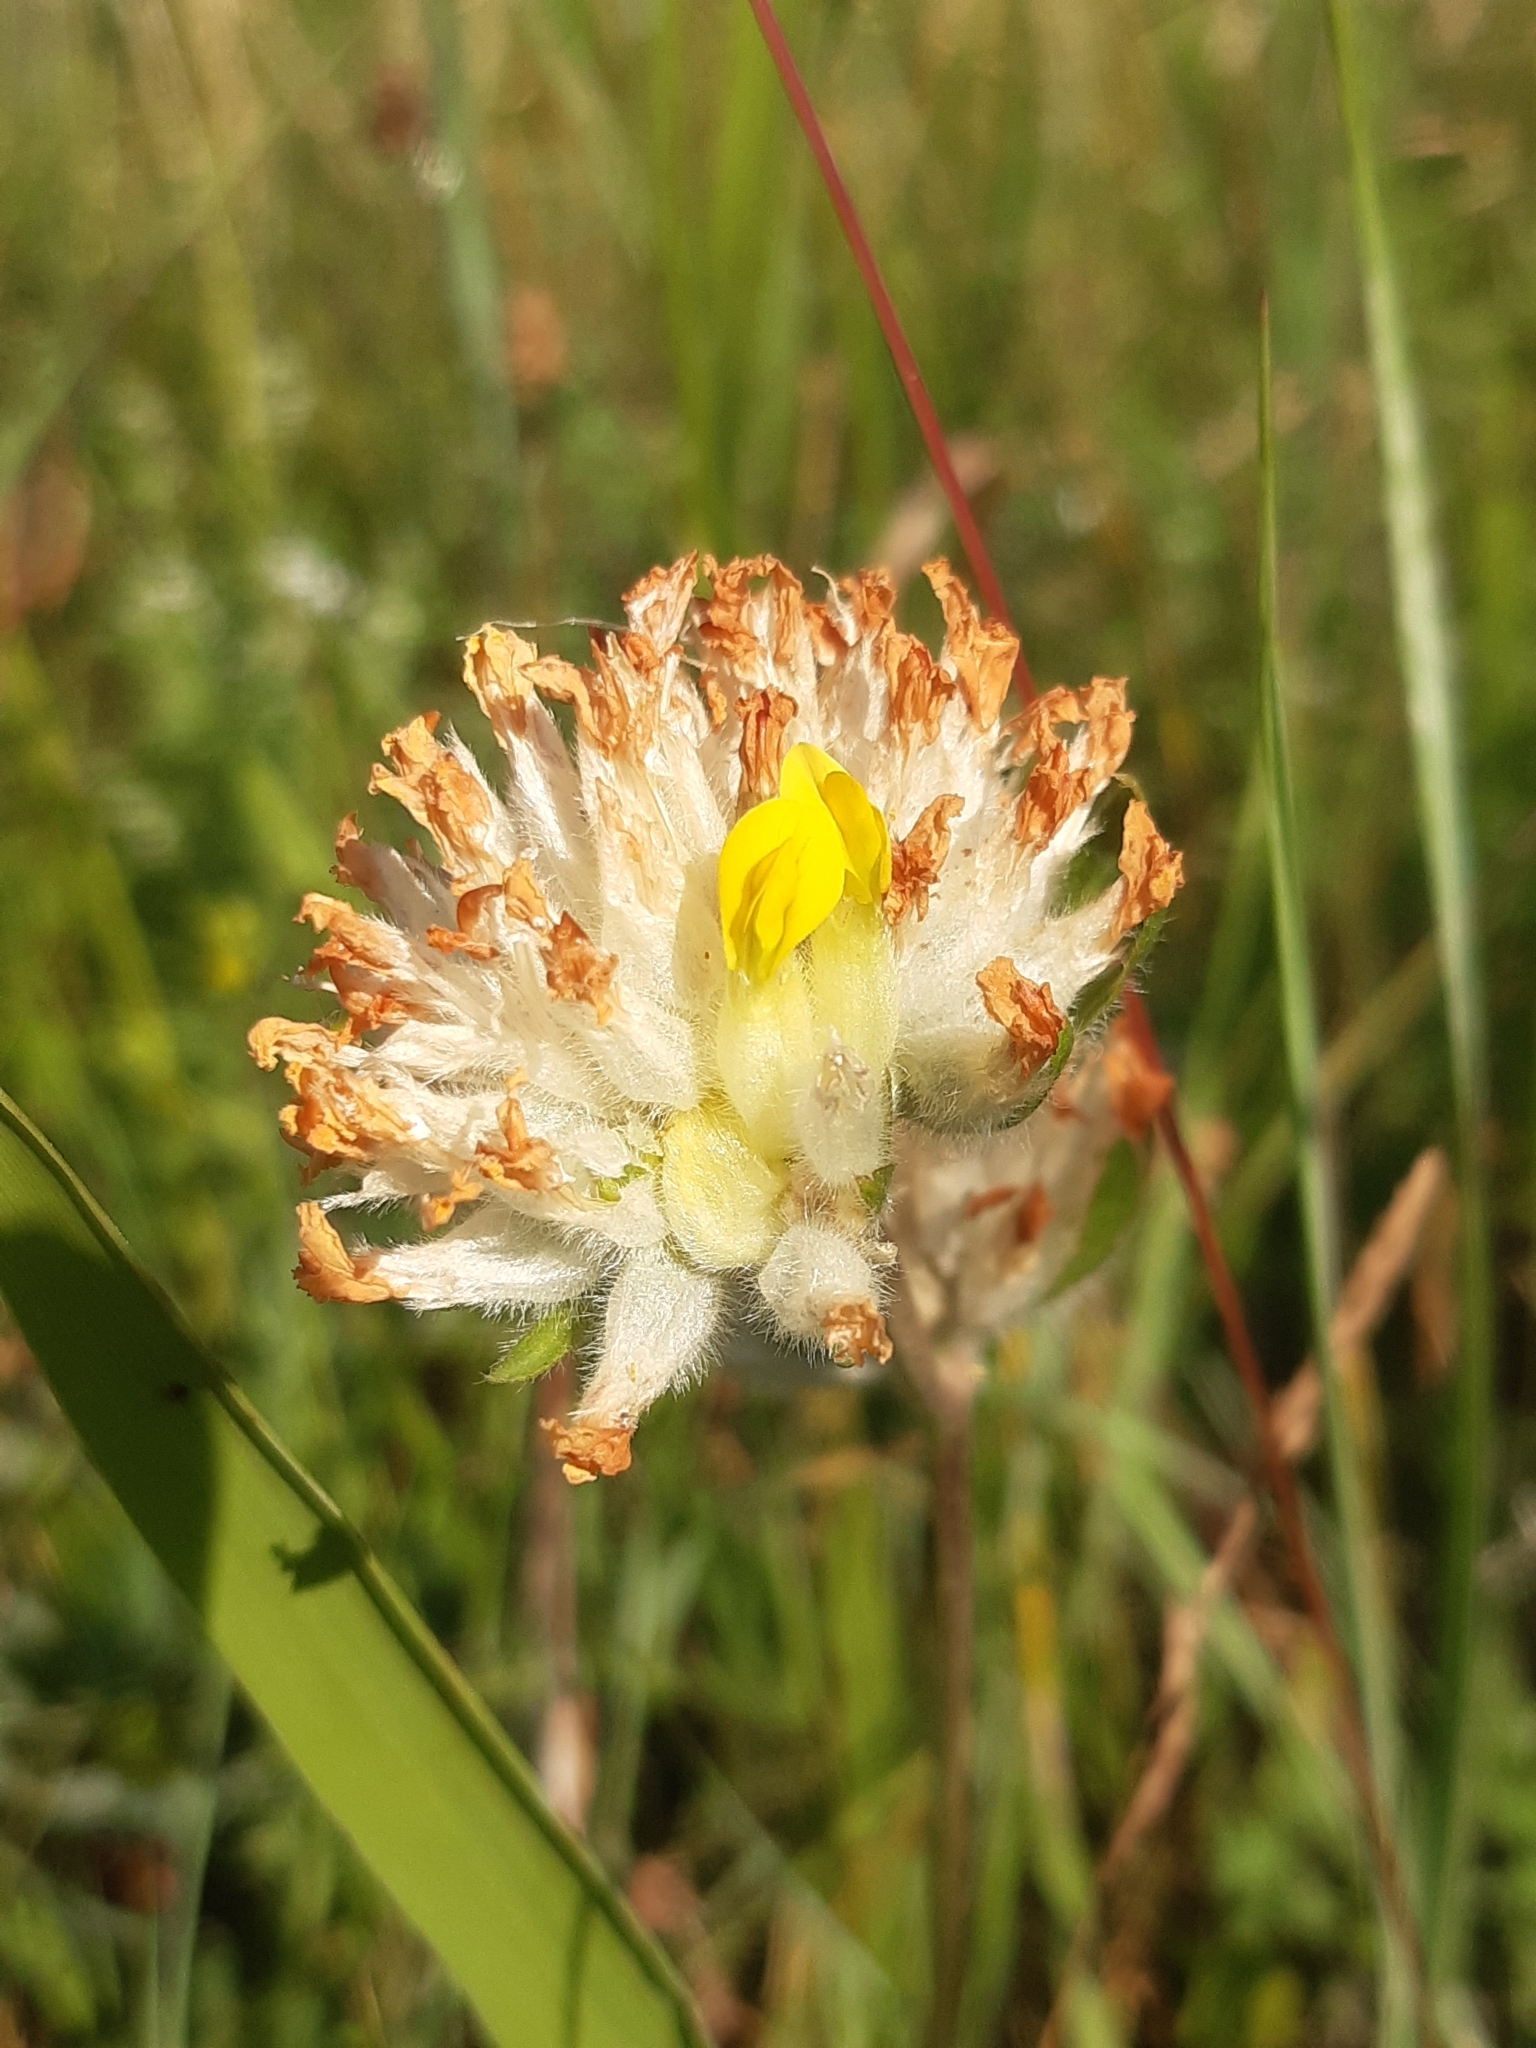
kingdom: Plantae
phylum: Tracheophyta
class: Magnoliopsida
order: Fabales
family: Fabaceae
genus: Anthyllis
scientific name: Anthyllis vulneraria
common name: Kidney vetch
